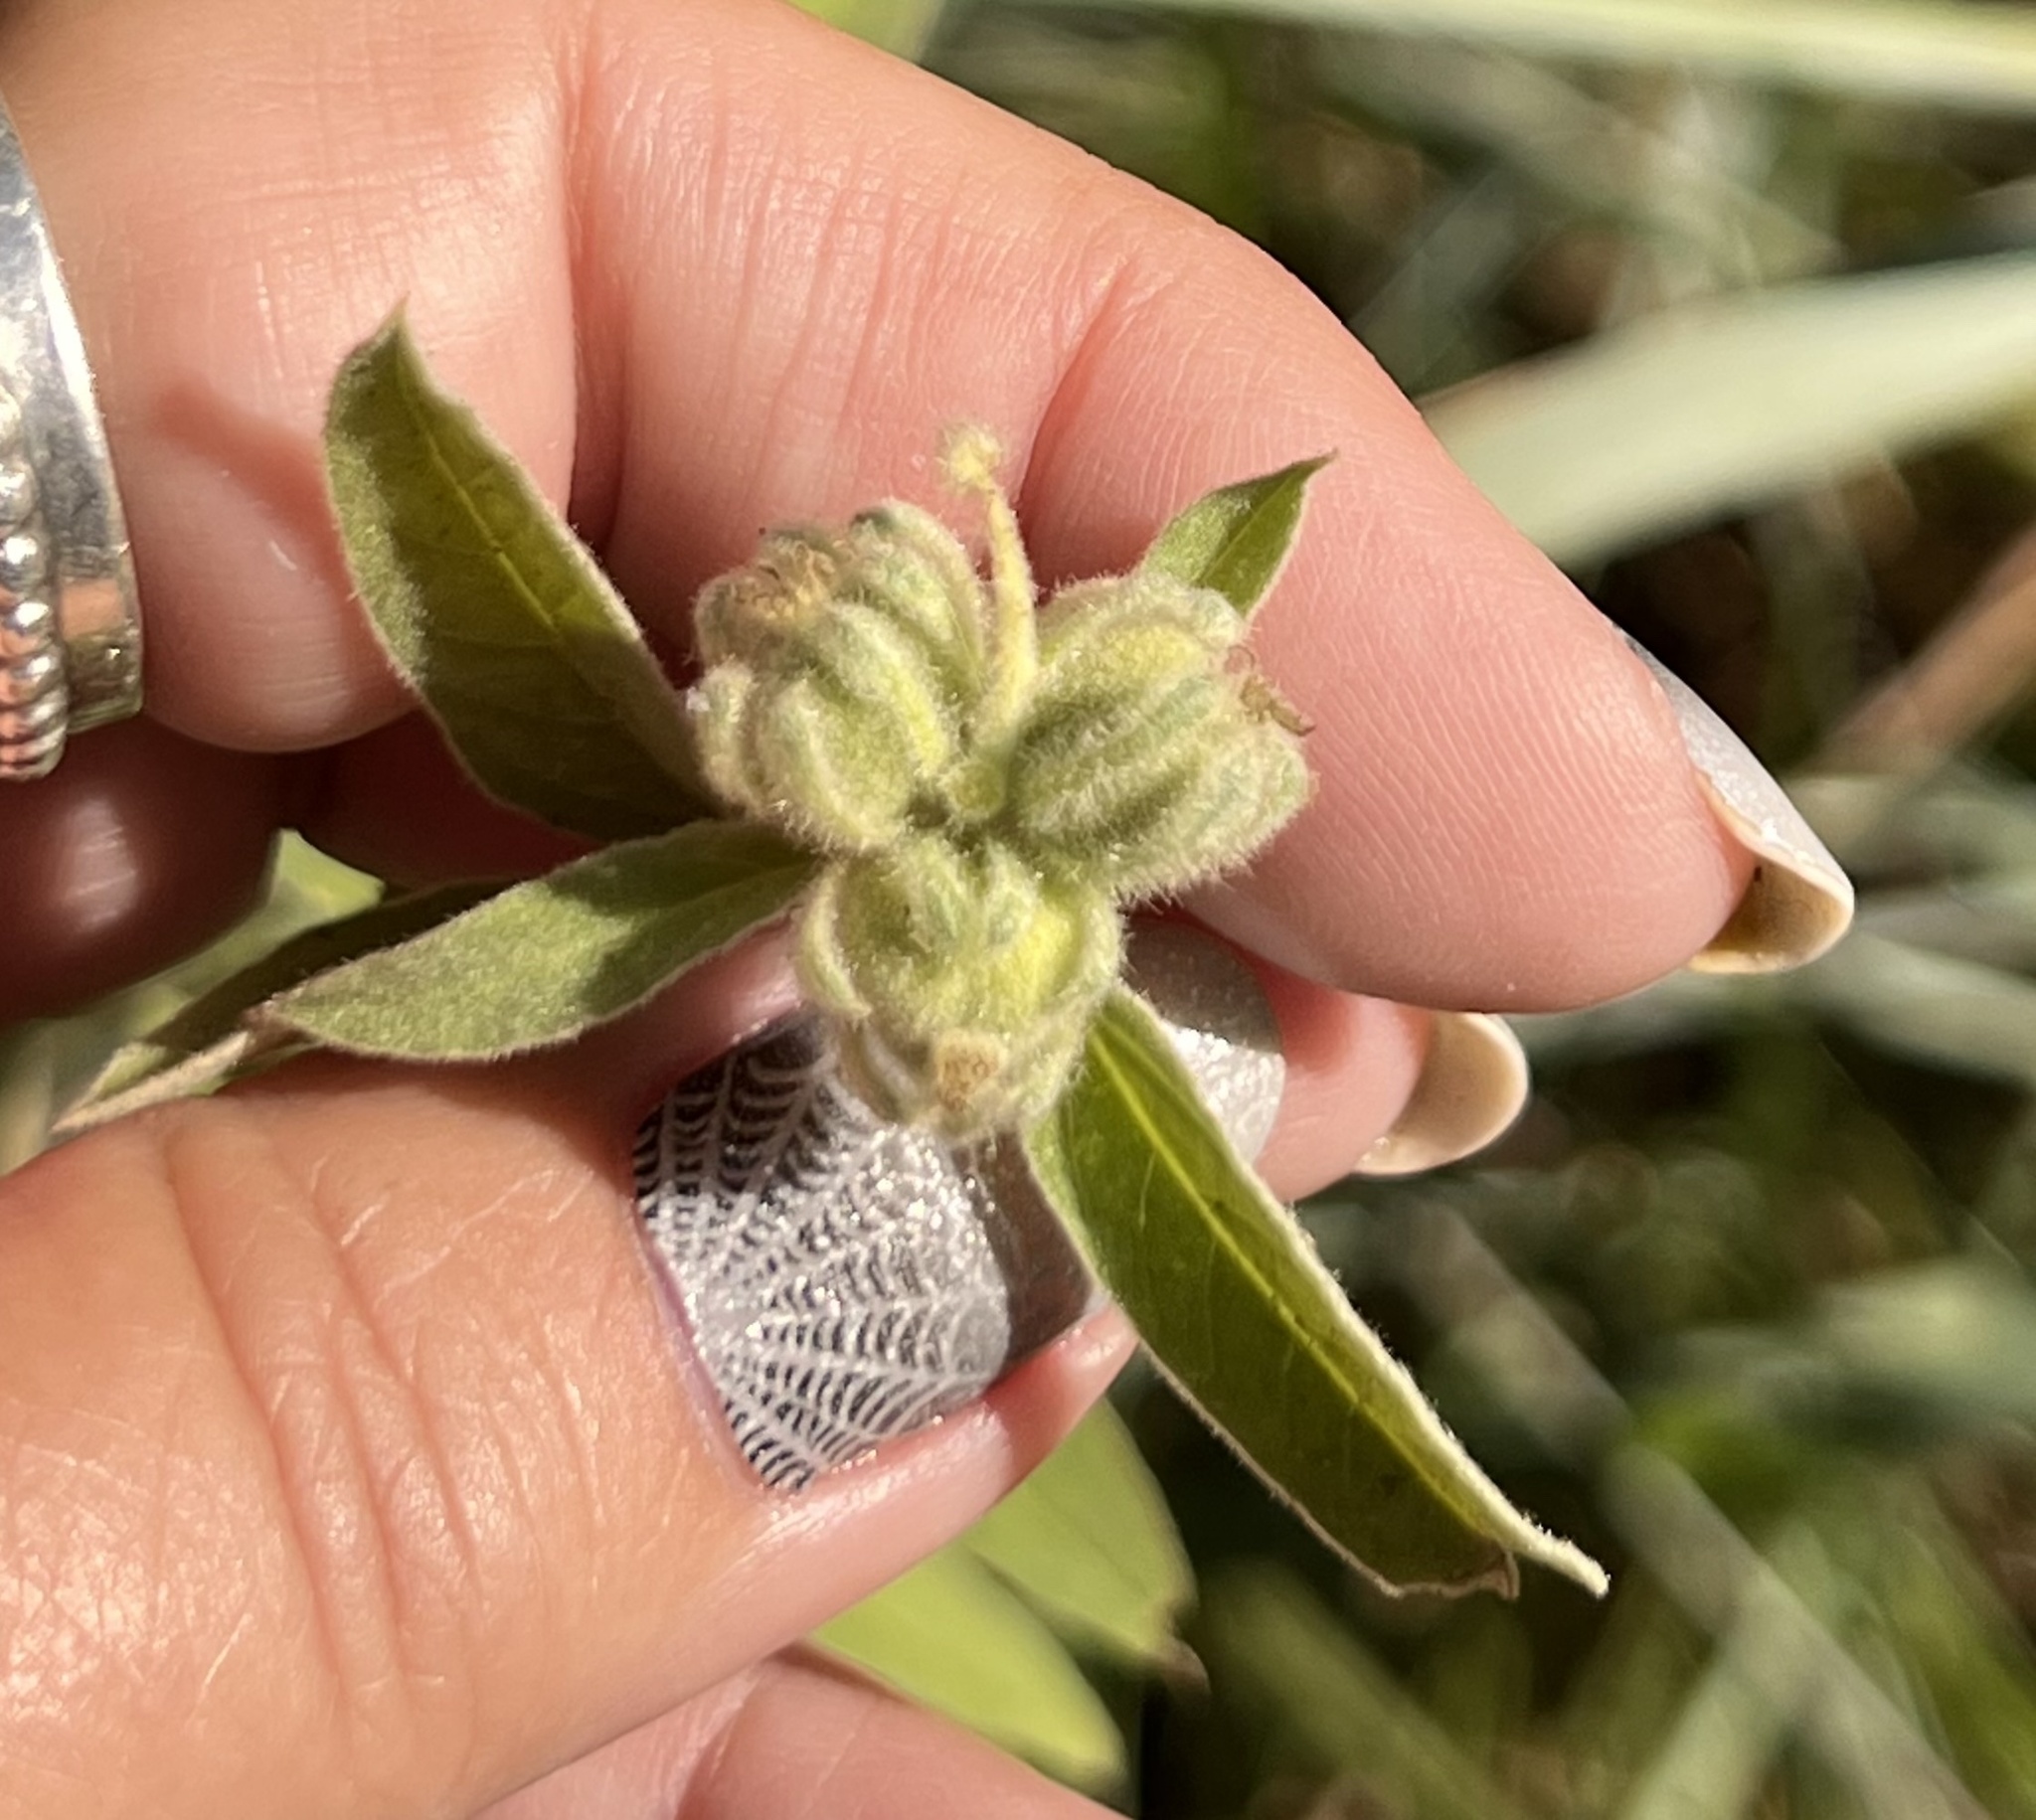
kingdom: Plantae
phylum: Tracheophyta
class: Magnoliopsida
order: Malpighiales
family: Euphorbiaceae
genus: Croton
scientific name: Croton lindheimeri
